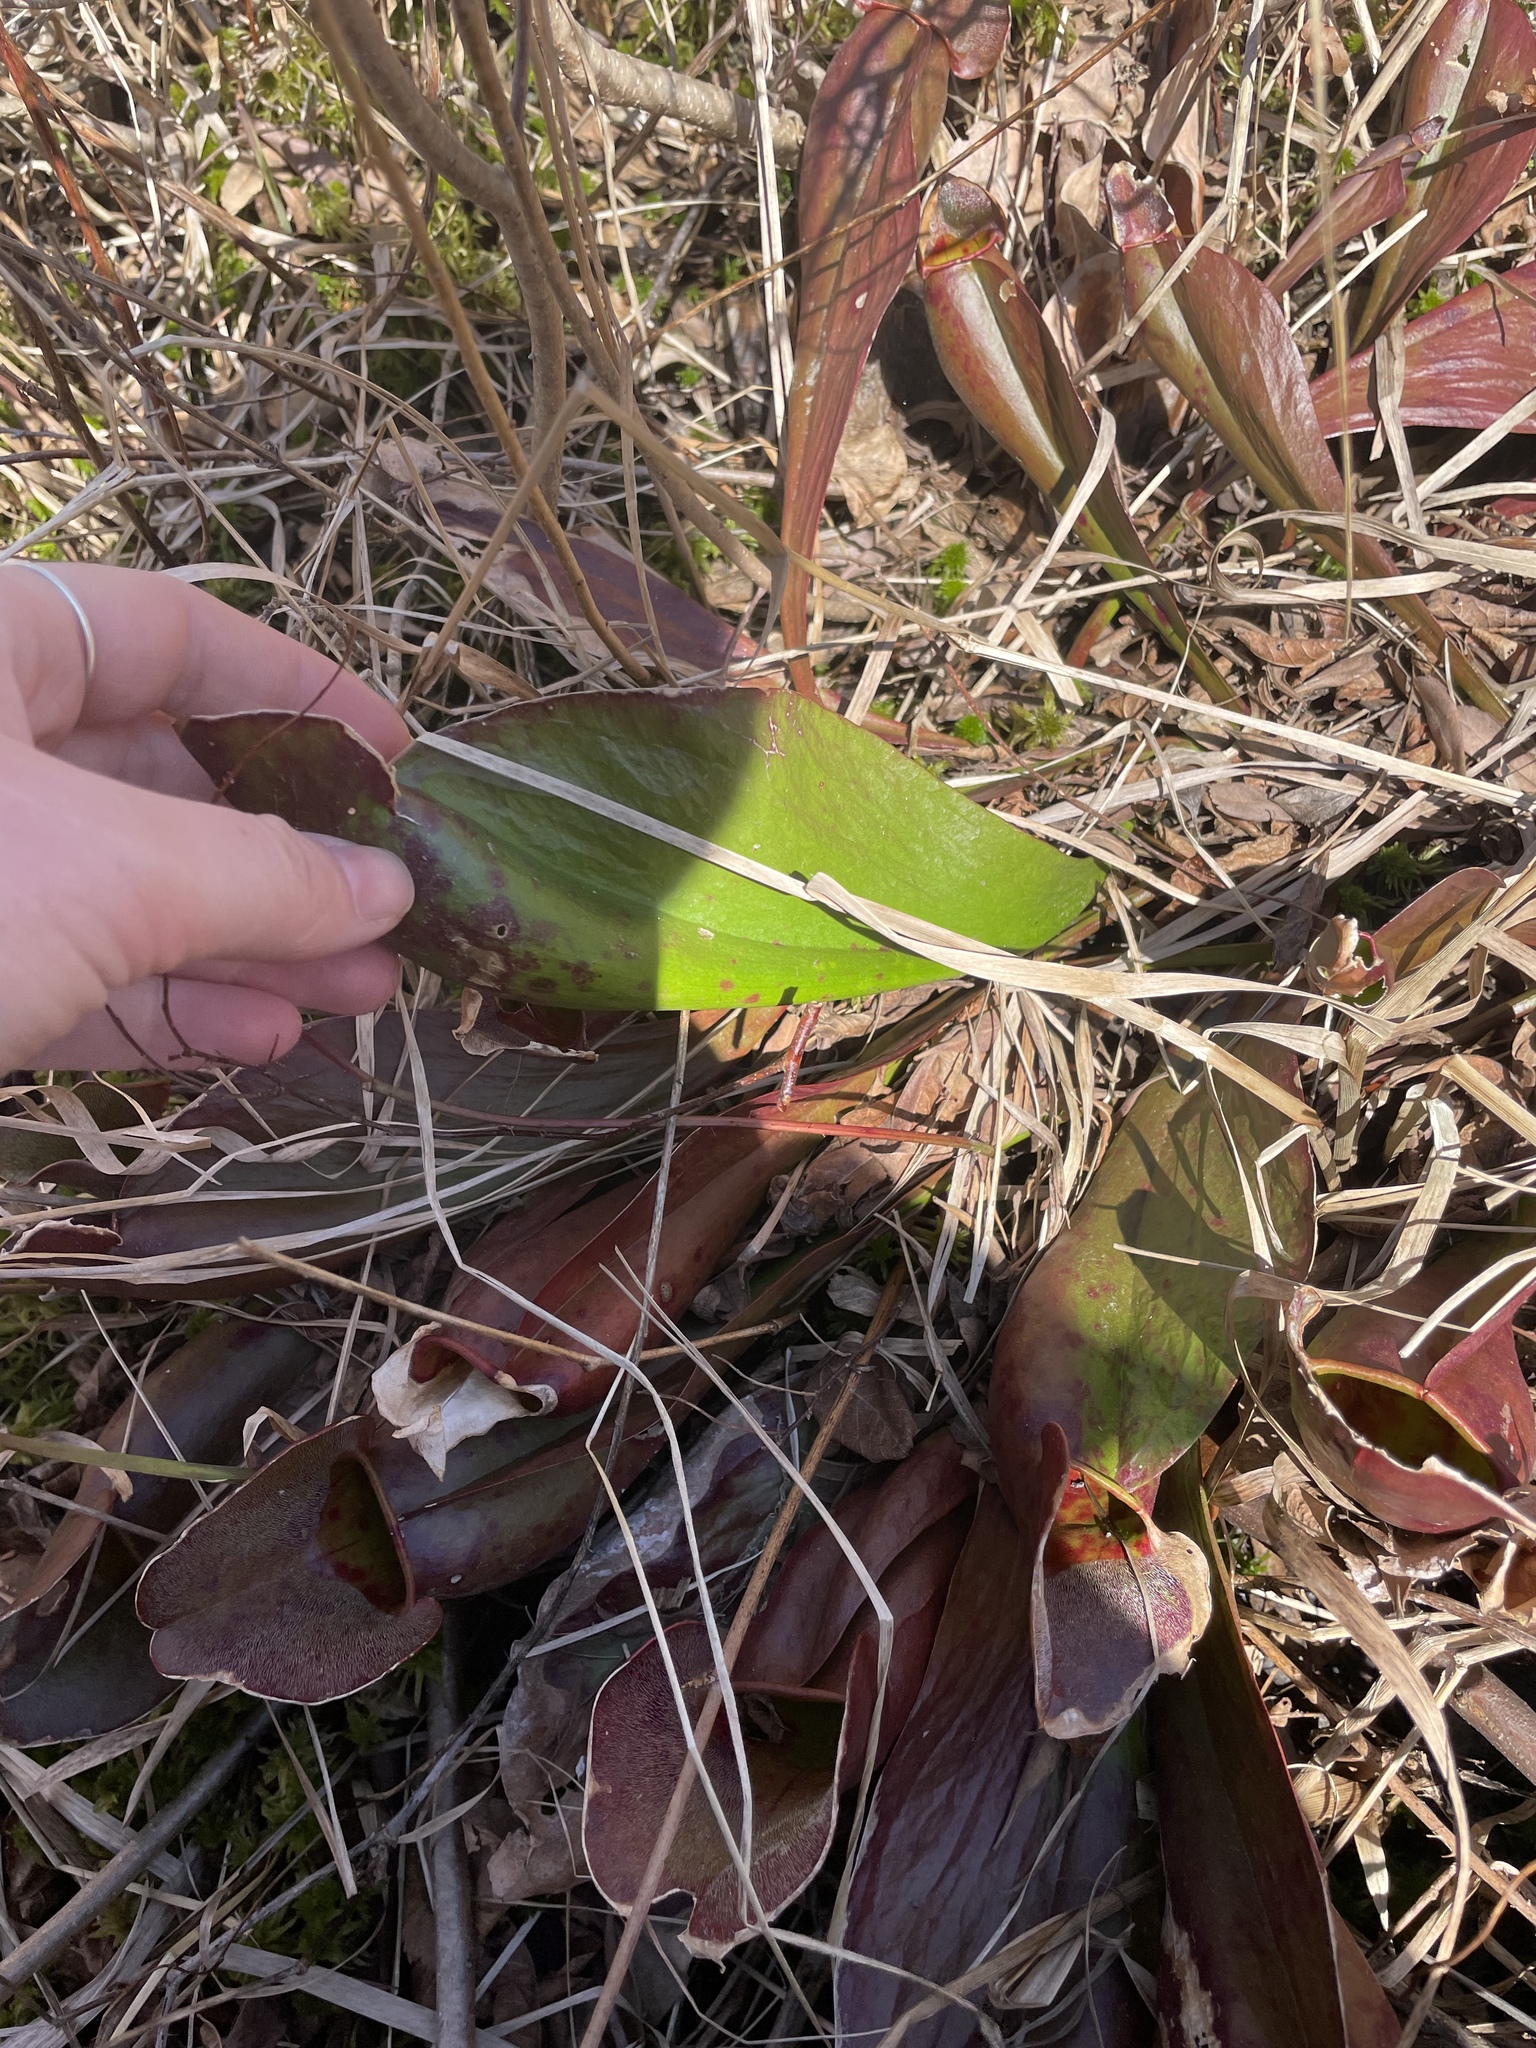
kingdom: Plantae
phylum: Tracheophyta
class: Magnoliopsida
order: Ericales
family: Sarraceniaceae
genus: Sarracenia
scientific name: Sarracenia purpurea
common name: Pitcherplant
